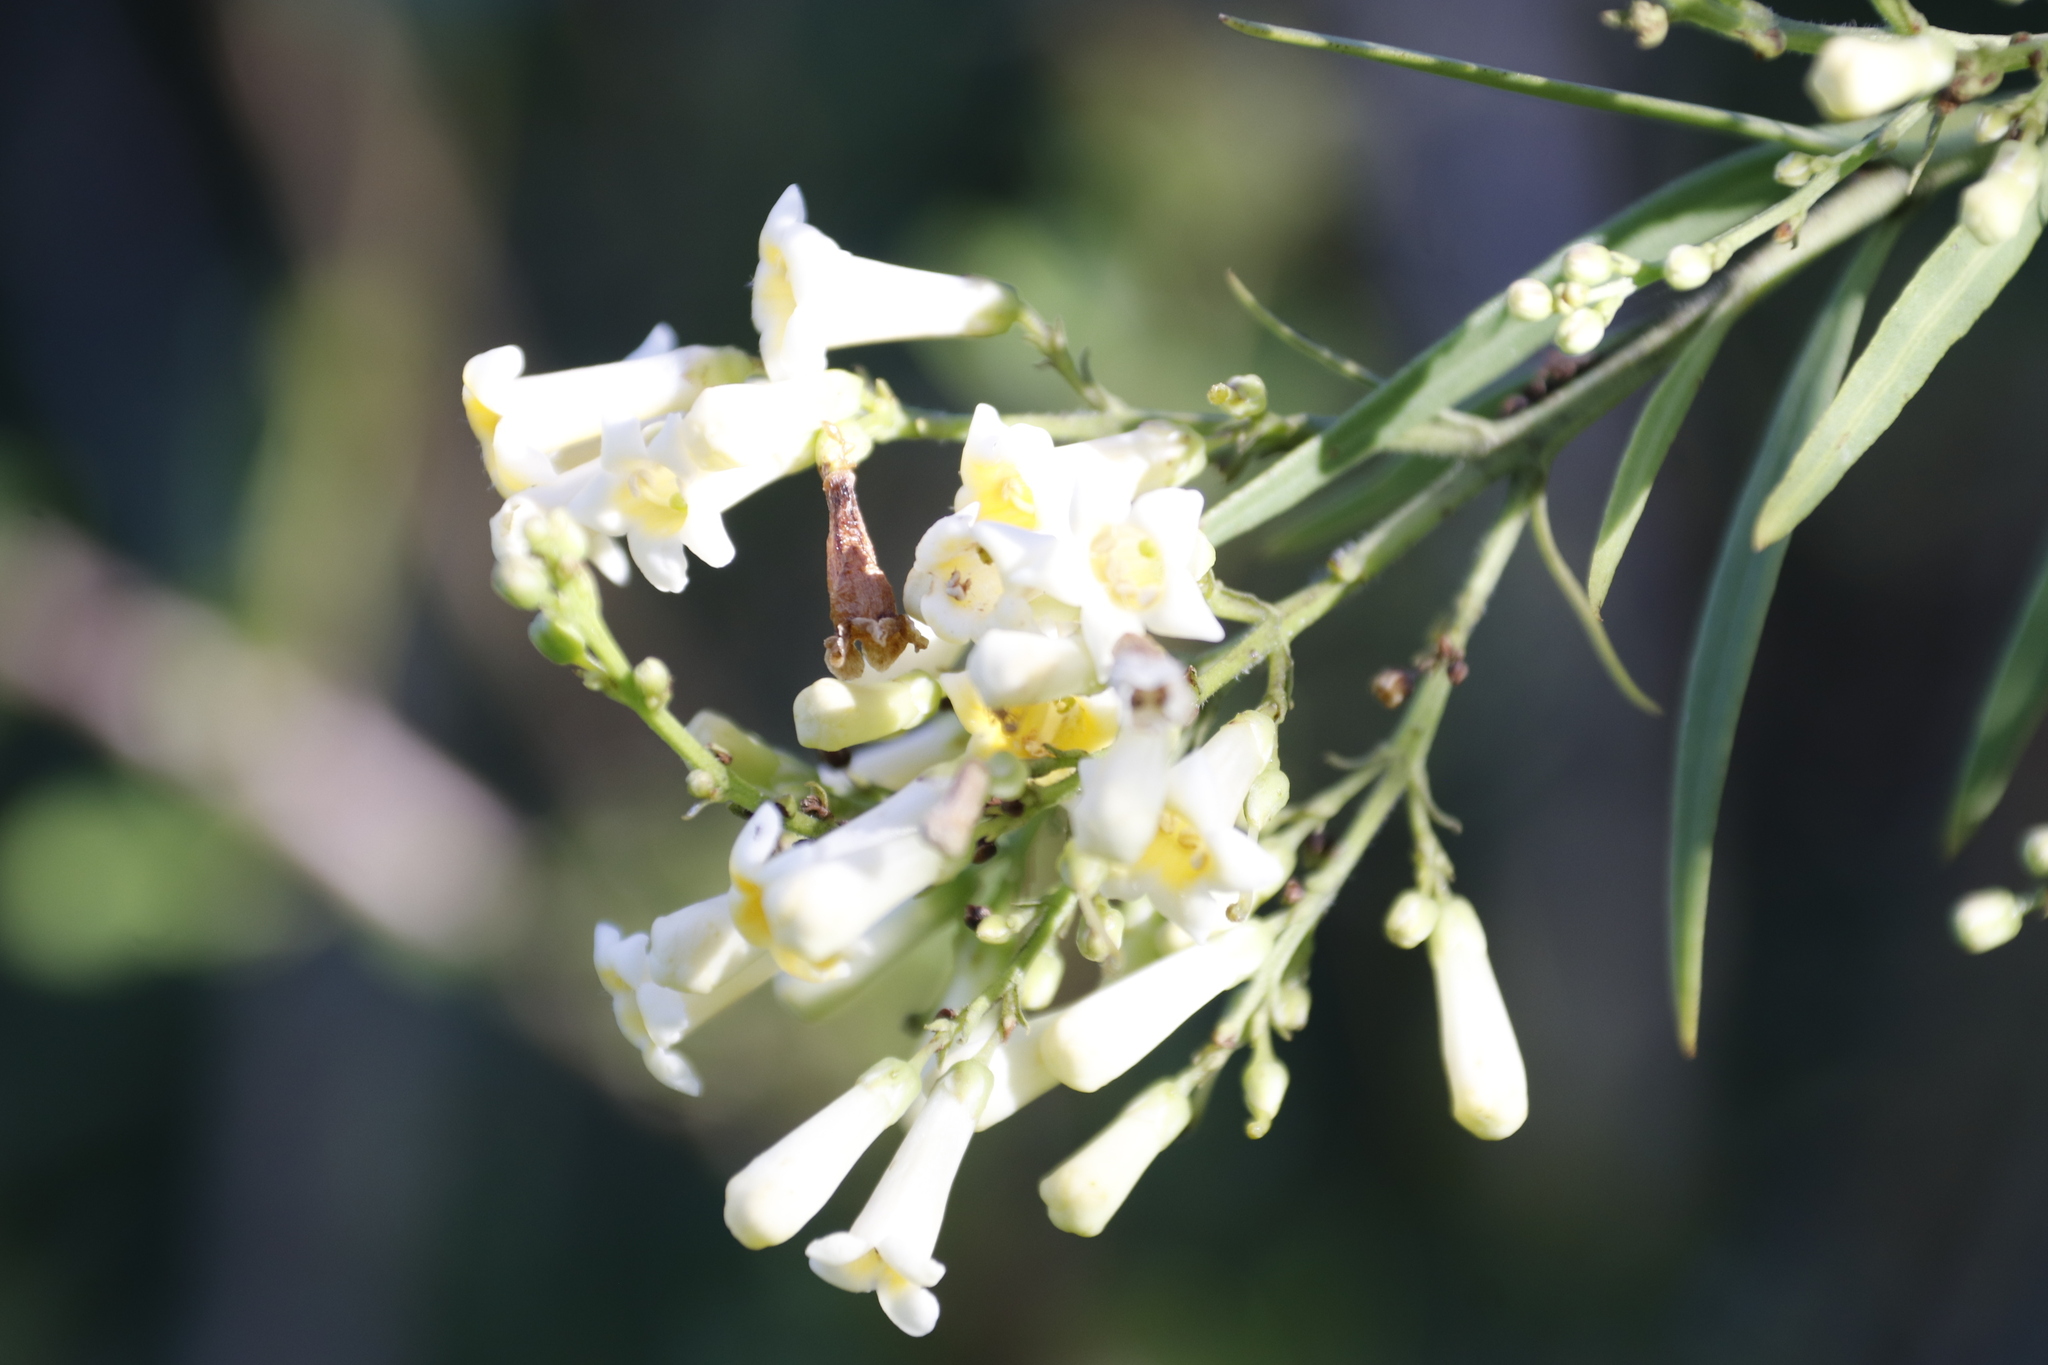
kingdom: Plantae
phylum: Tracheophyta
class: Magnoliopsida
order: Lamiales
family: Scrophulariaceae
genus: Freylinia
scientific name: Freylinia lanceolata
